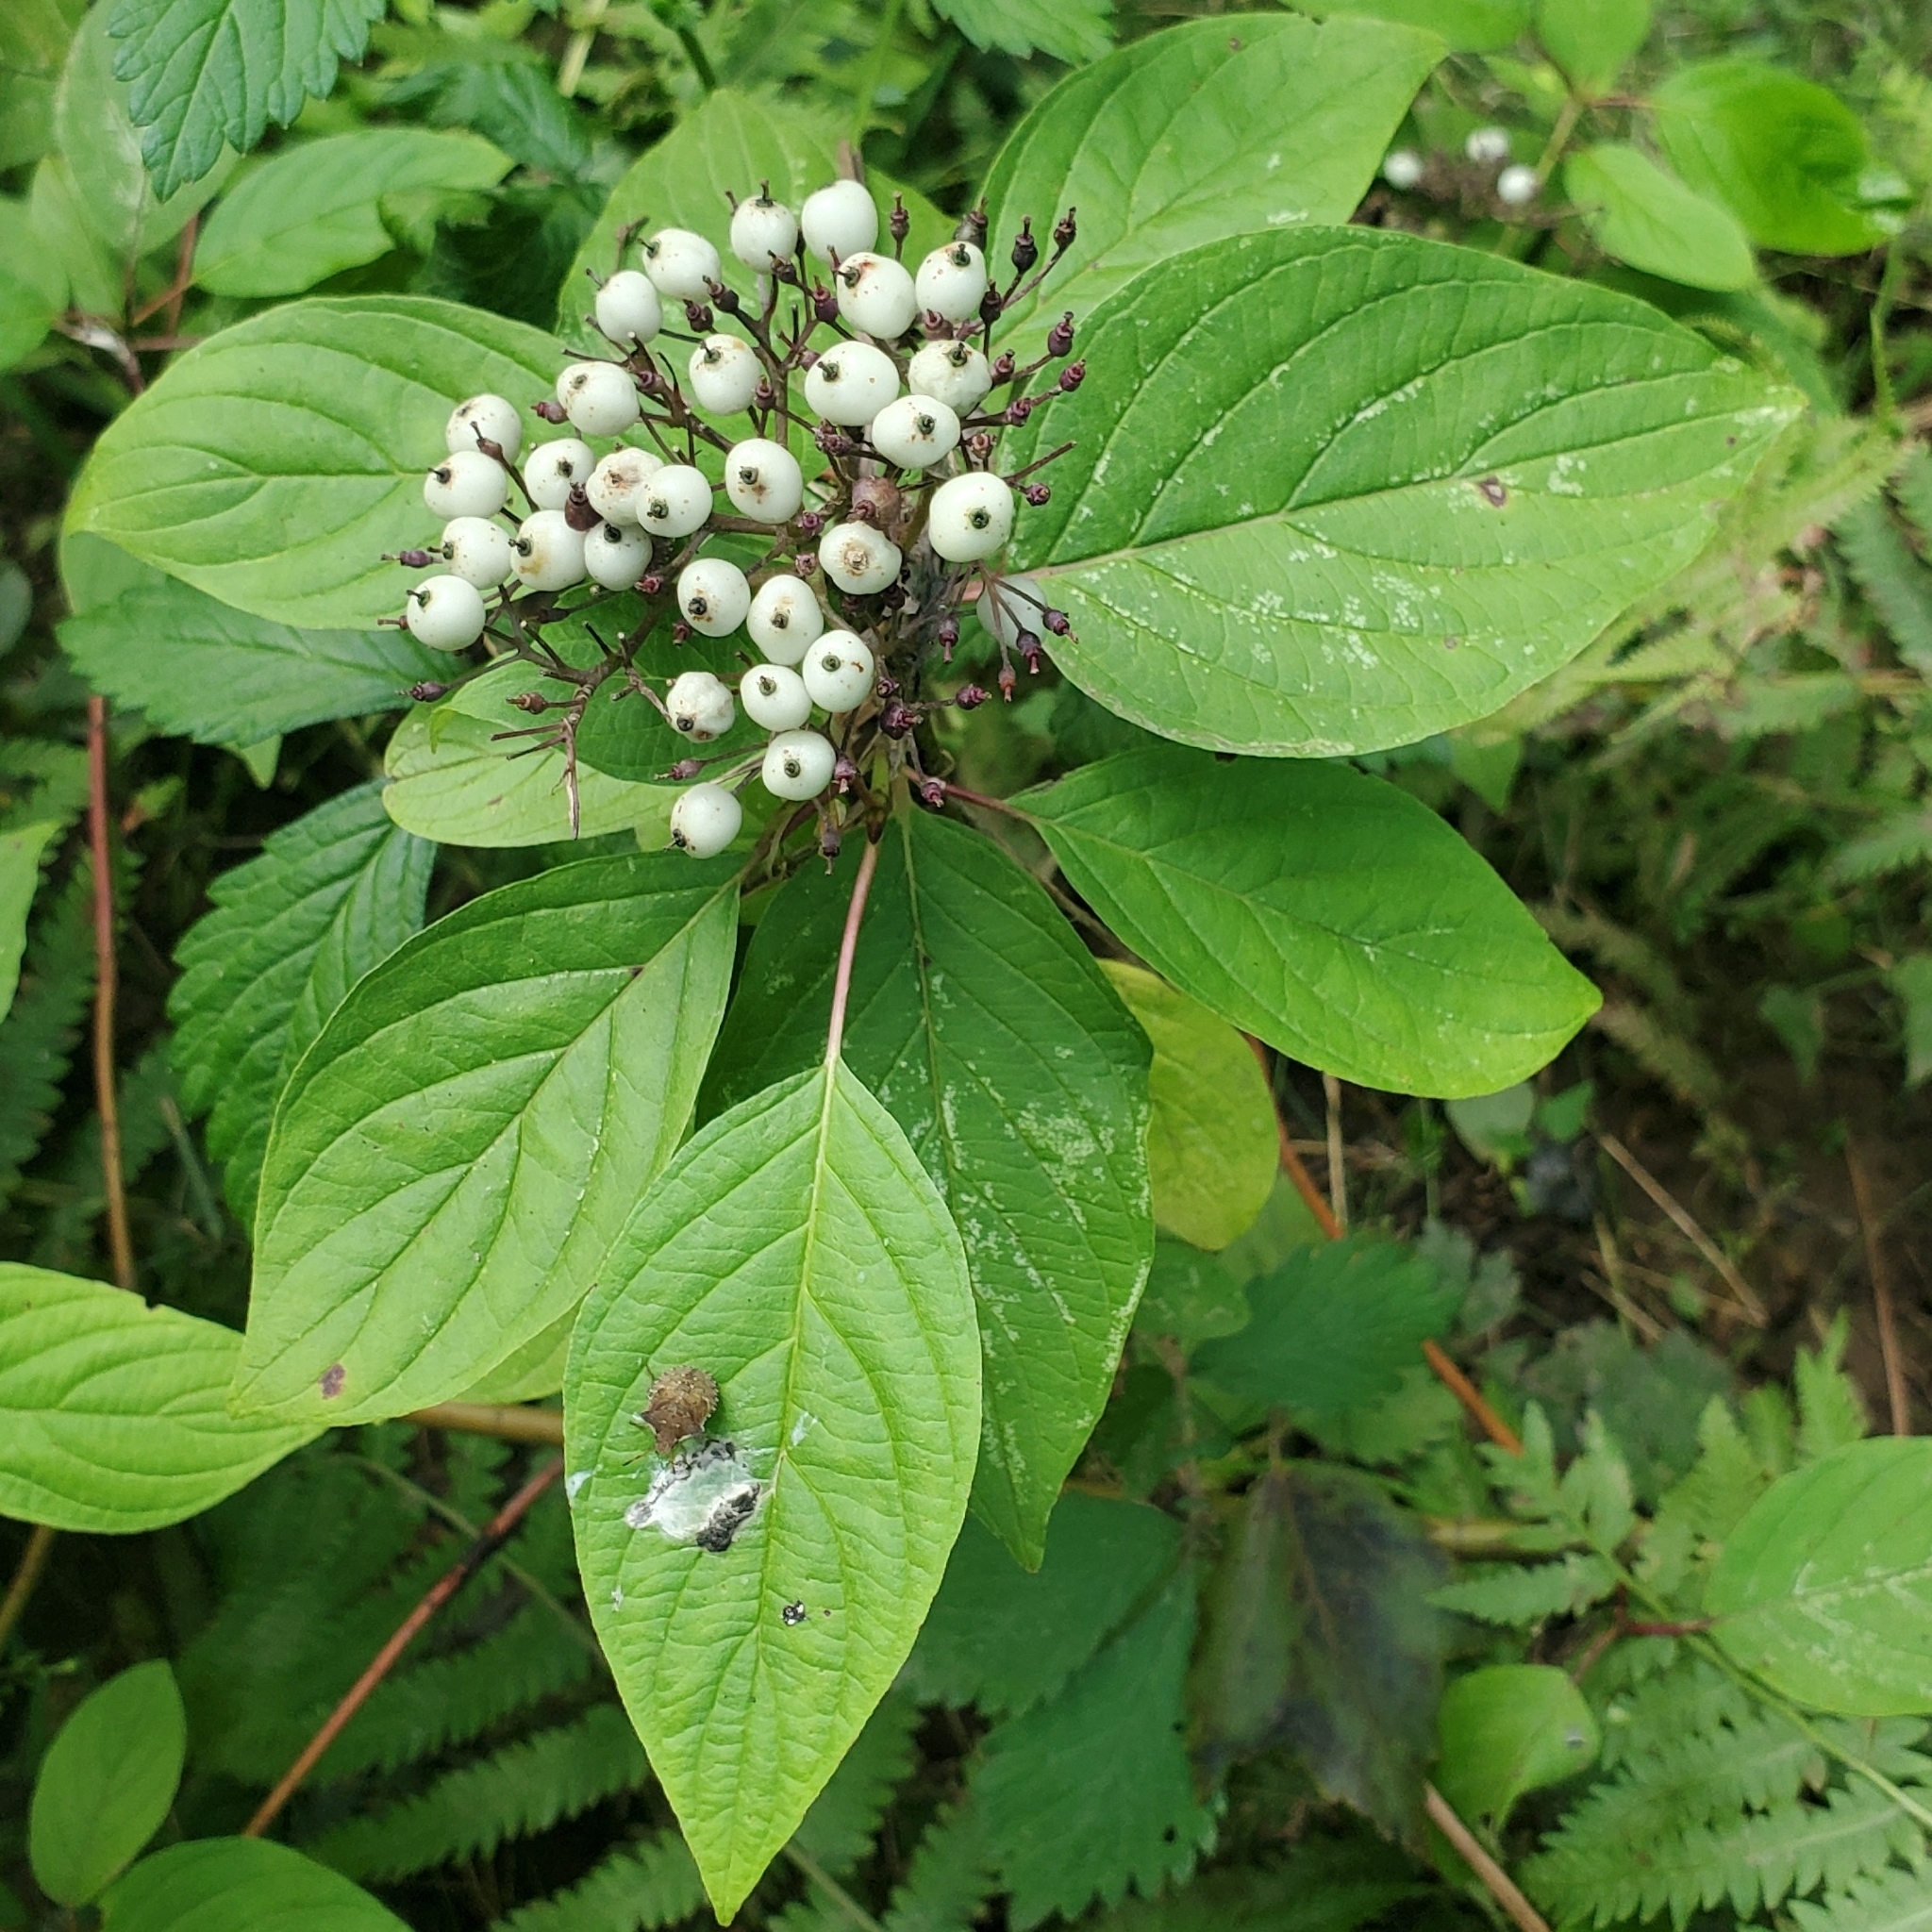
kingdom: Plantae
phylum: Tracheophyta
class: Magnoliopsida
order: Cornales
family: Cornaceae
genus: Cornus
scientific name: Cornus sericea
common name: Red-osier dogwood
